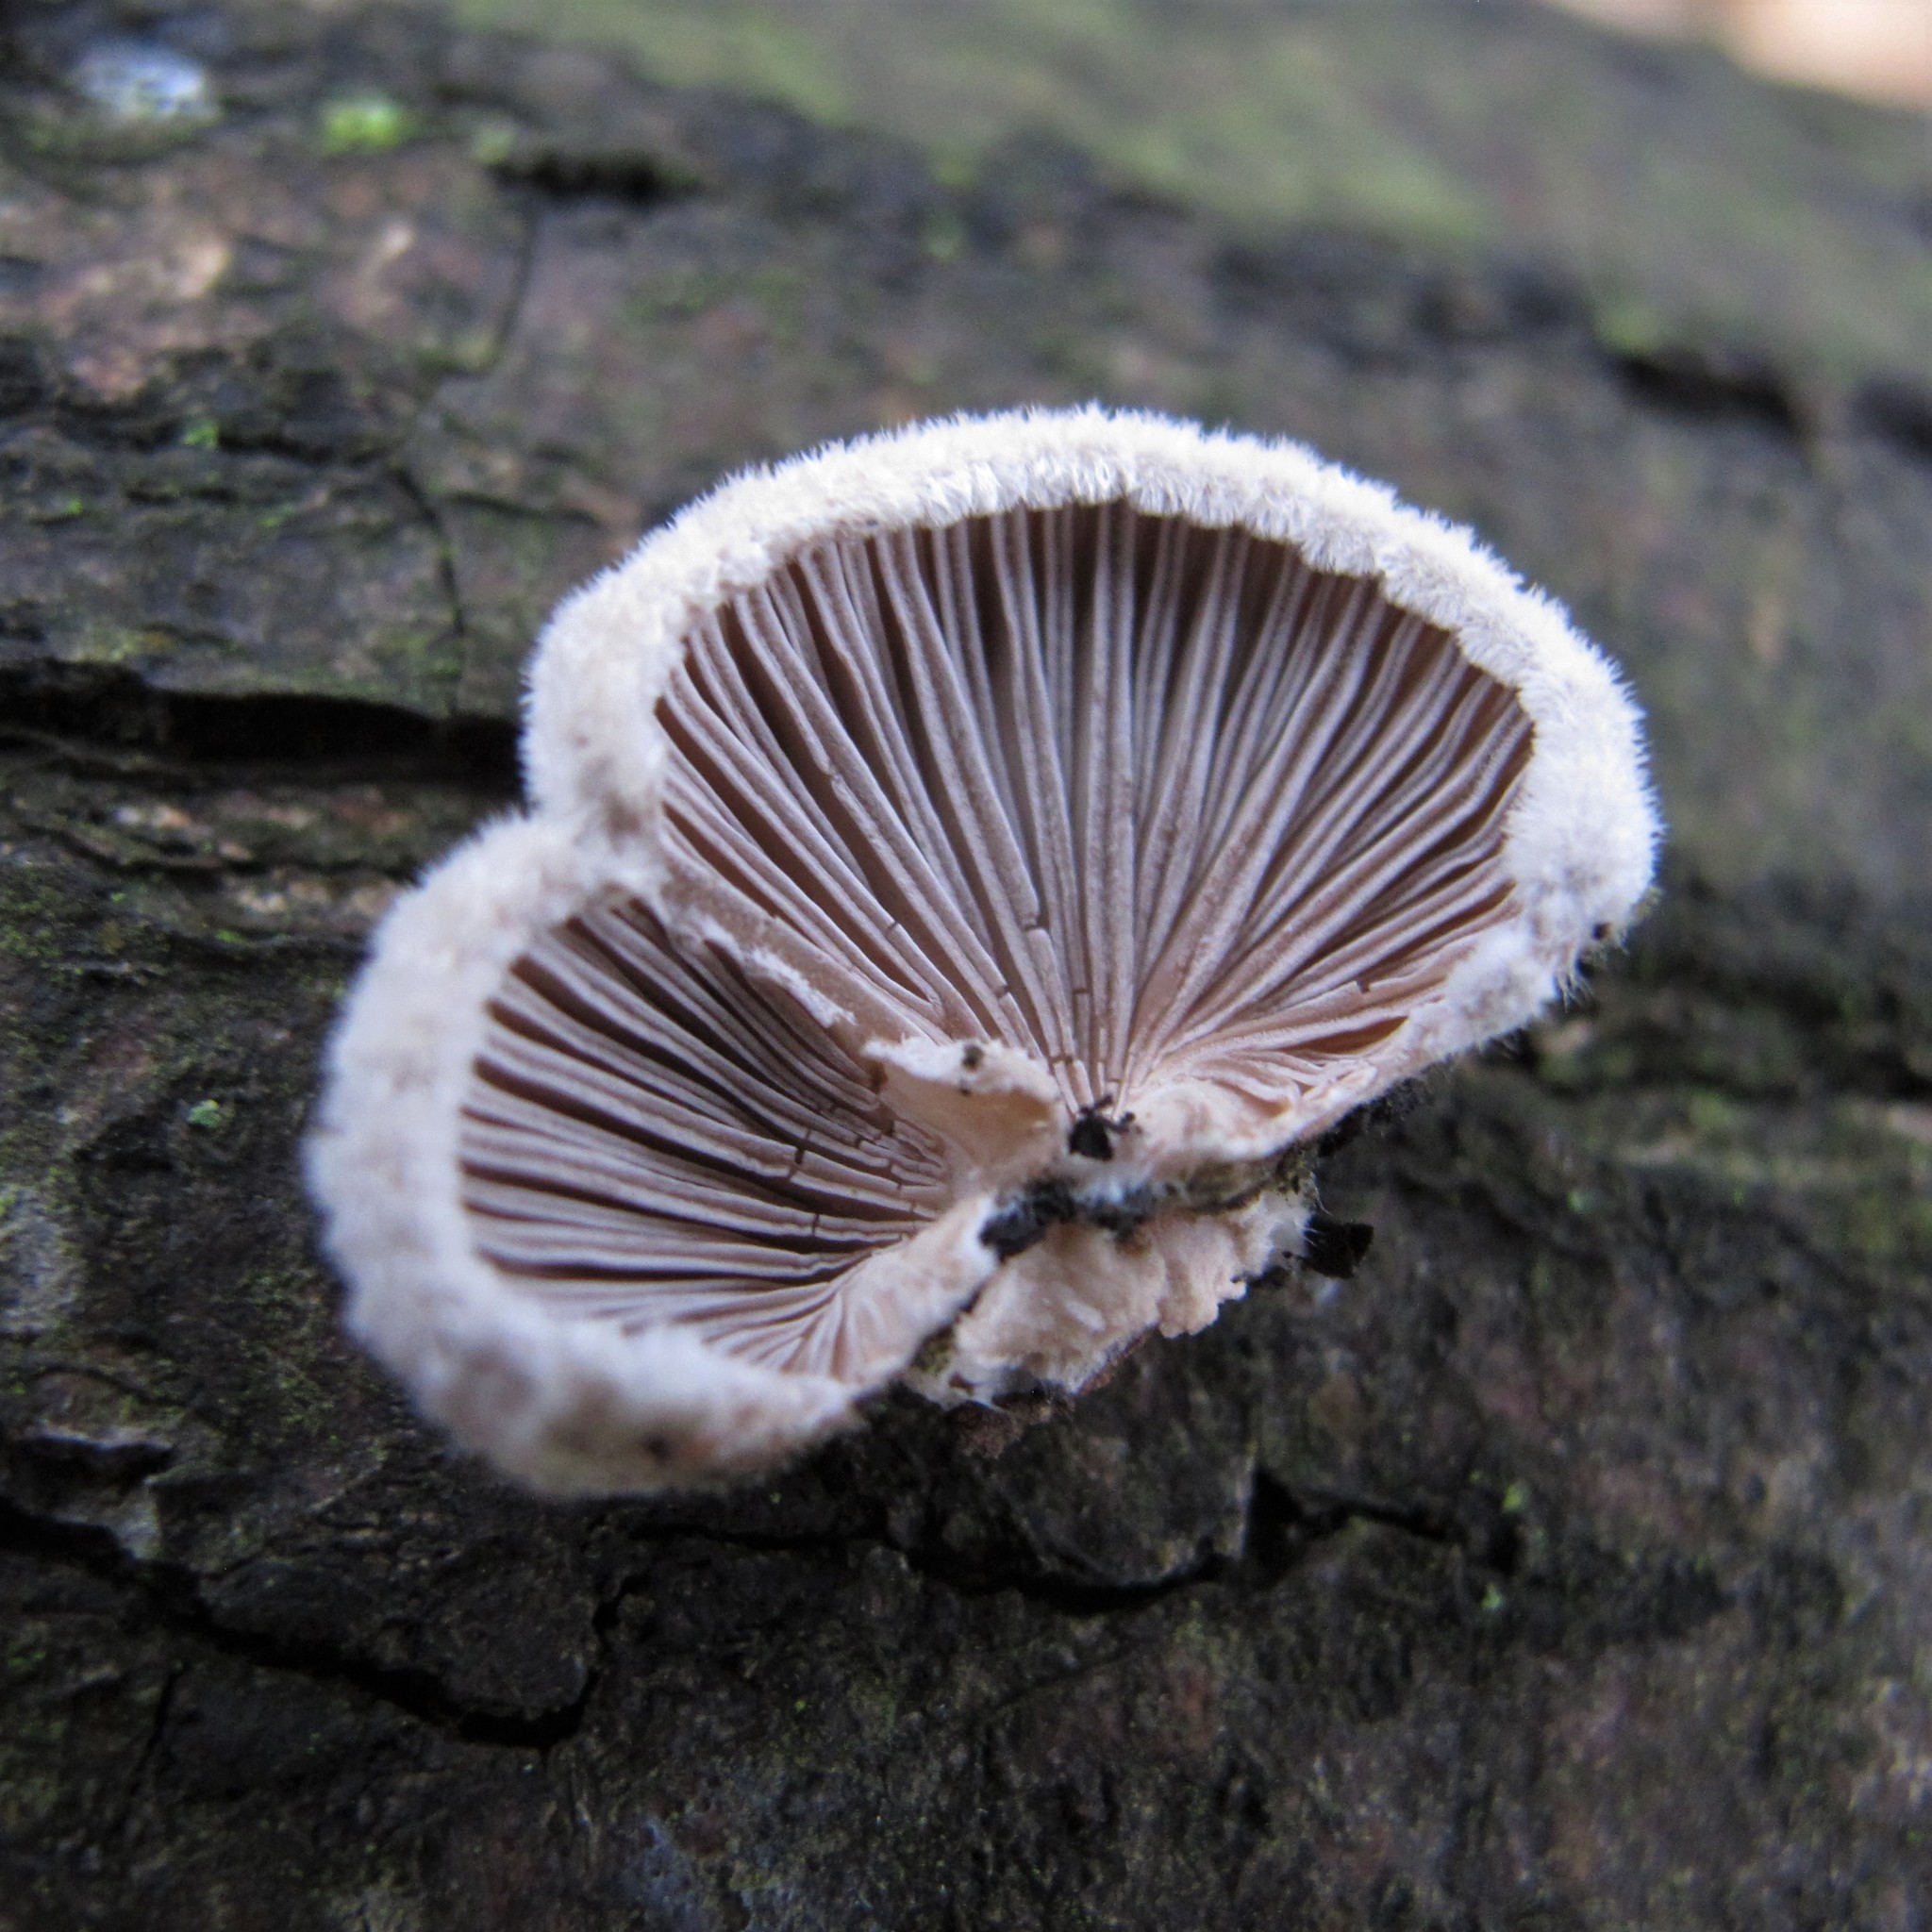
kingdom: Fungi
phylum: Basidiomycota
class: Agaricomycetes
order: Agaricales
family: Schizophyllaceae
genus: Schizophyllum
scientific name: Schizophyllum commune
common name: Common porecrust
